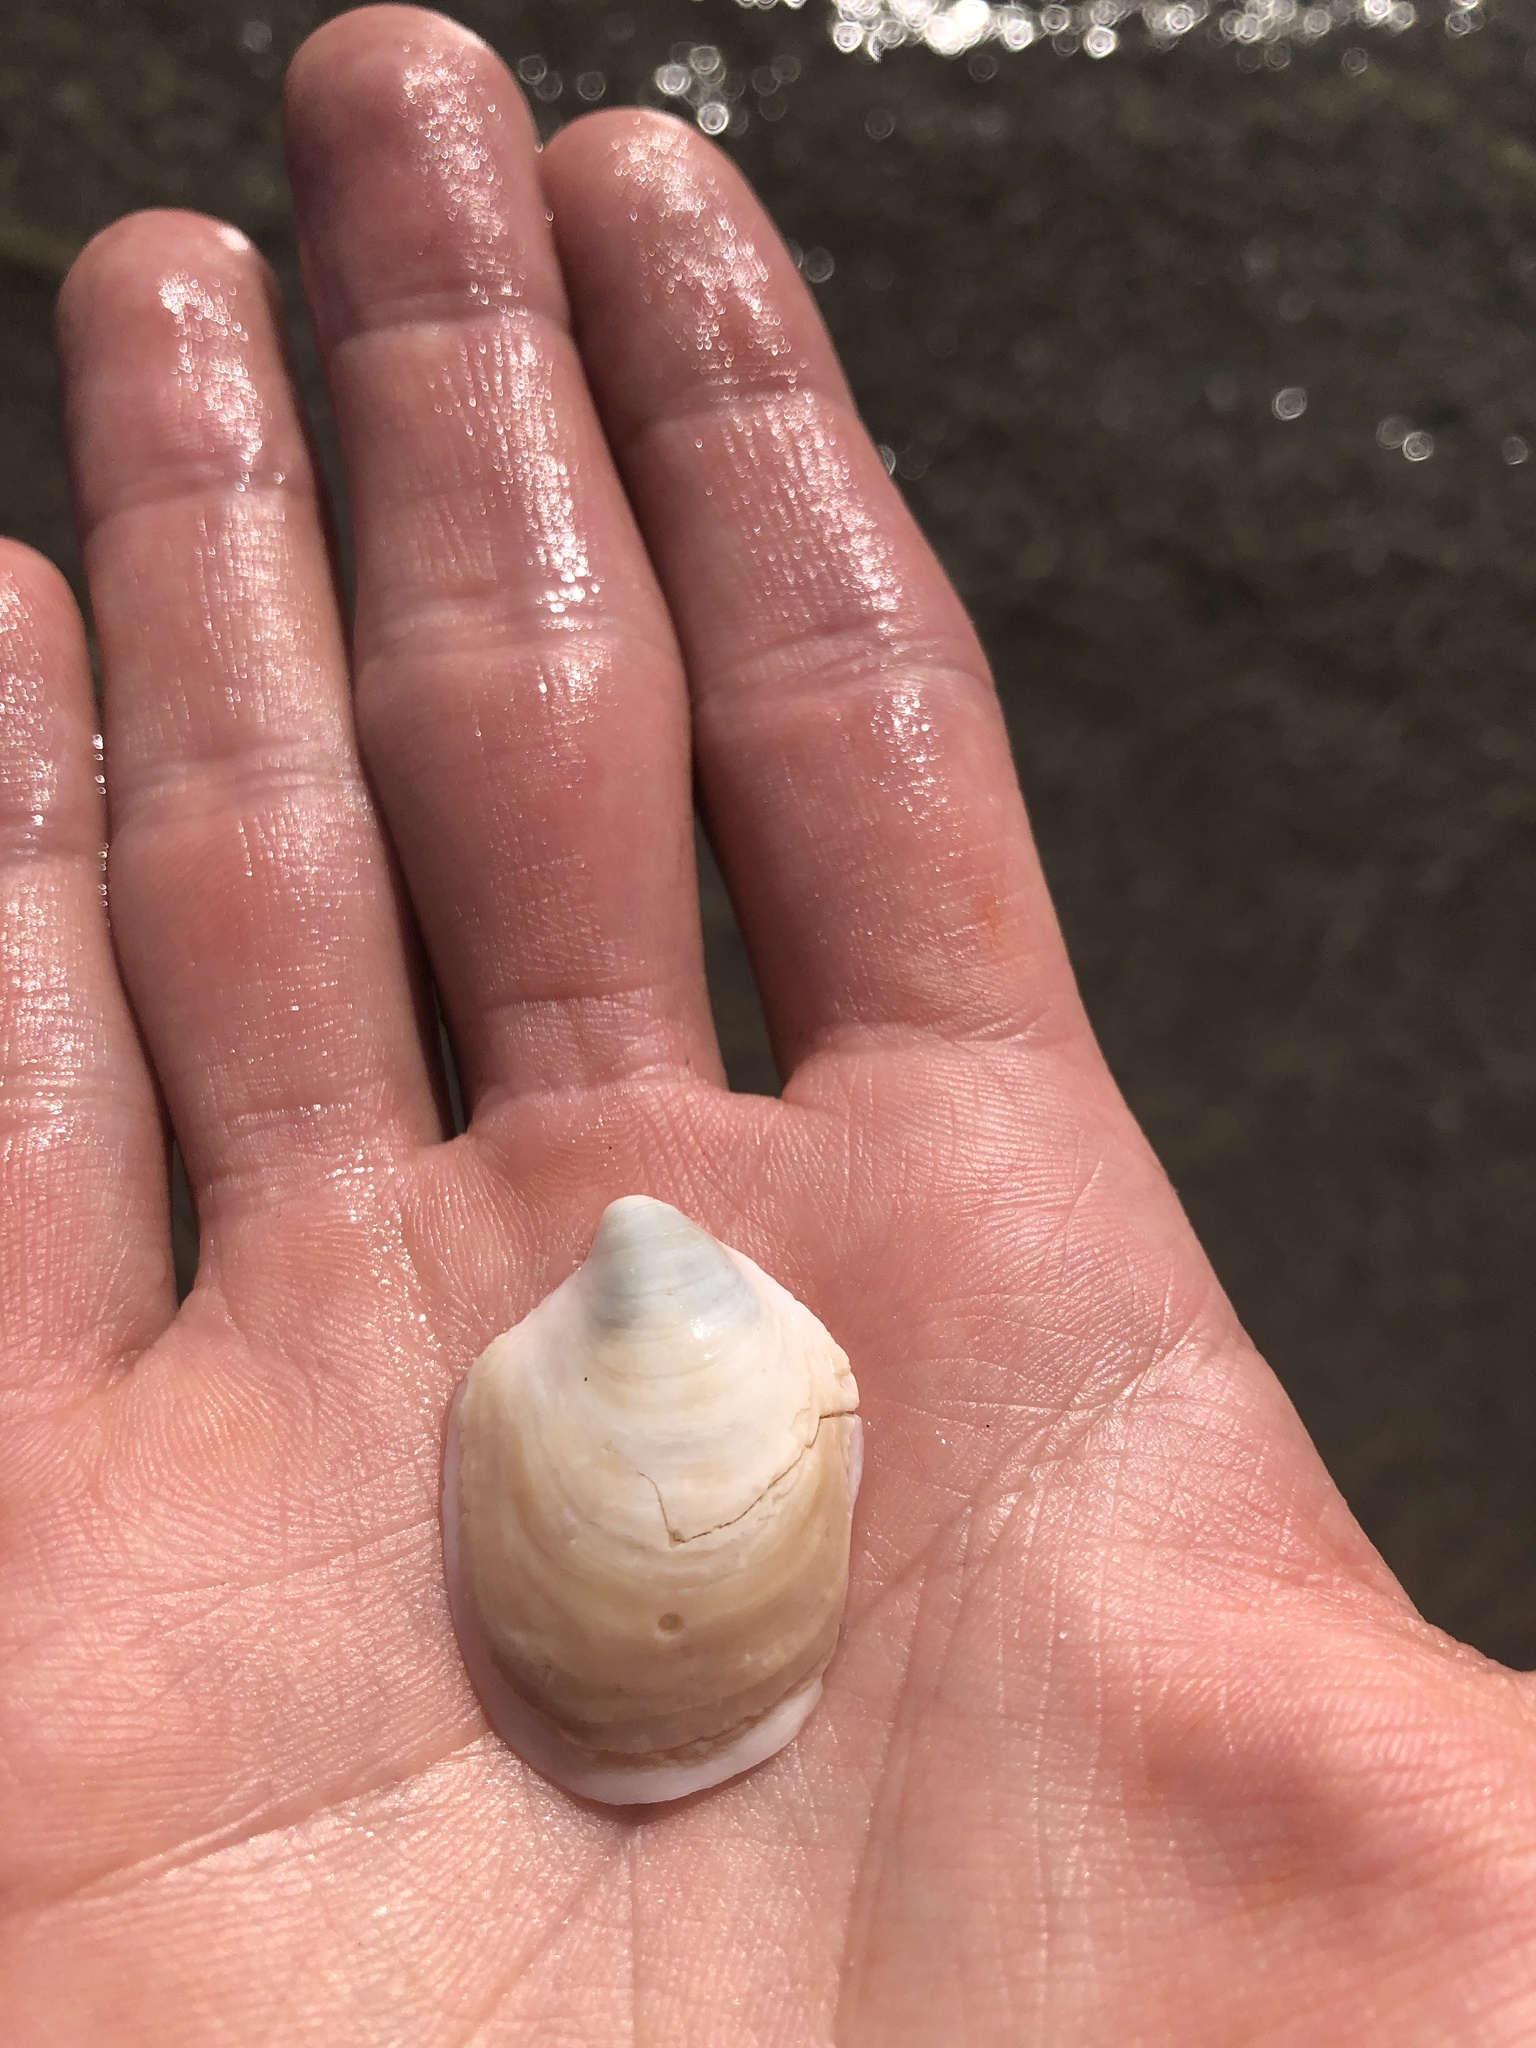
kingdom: Animalia
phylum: Mollusca
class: Gastropoda
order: Littorinimorpha
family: Calyptraeidae
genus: Crepidula
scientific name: Crepidula fornicata
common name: Slipper limpet
